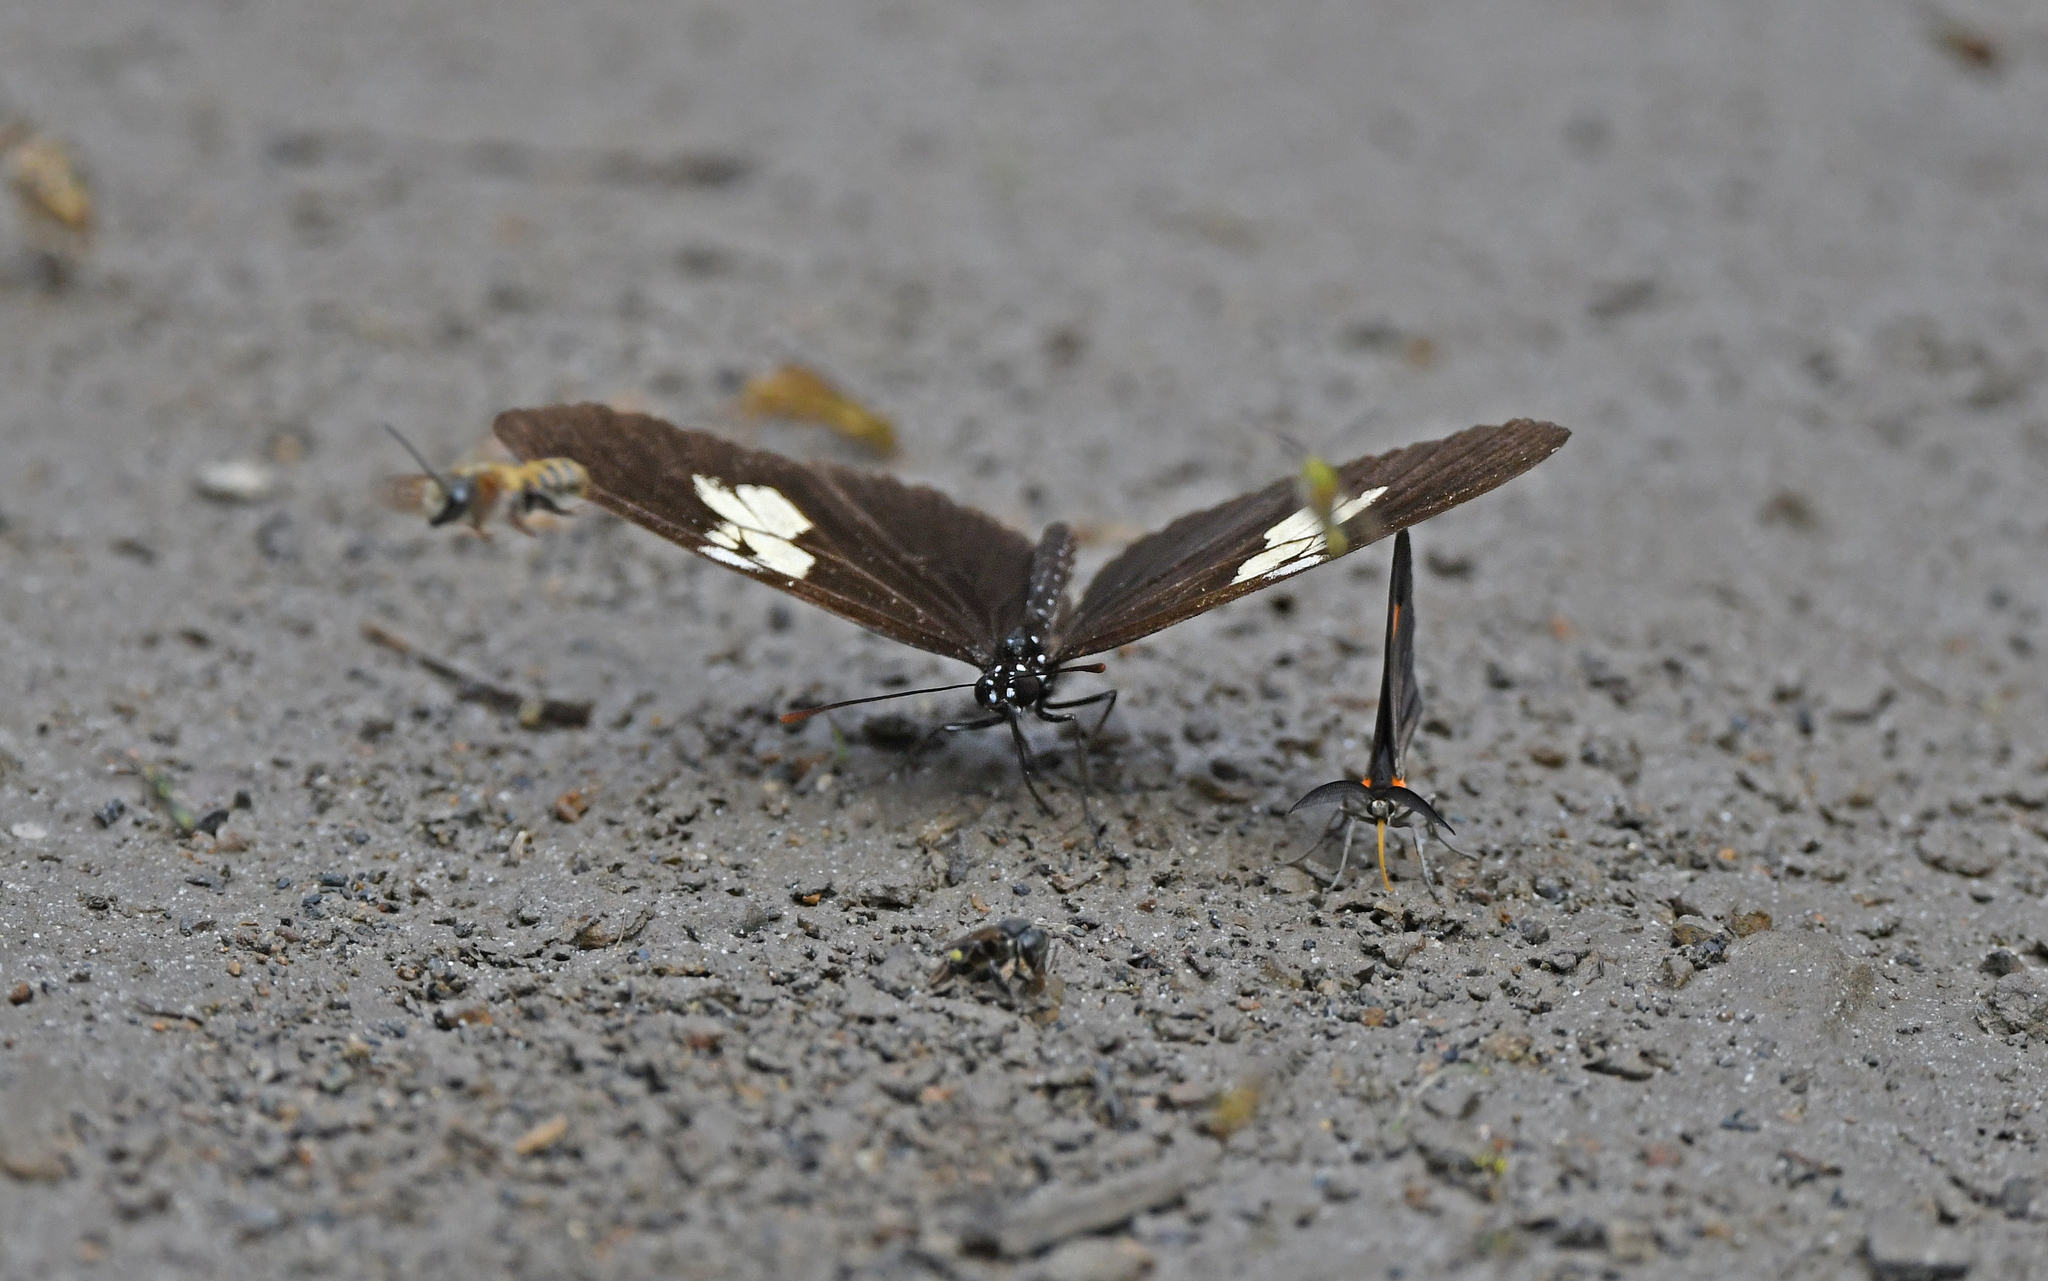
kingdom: Animalia
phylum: Arthropoda
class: Insecta
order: Lepidoptera
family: Nymphalidae
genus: Eueides
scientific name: Eueides heliconioides
